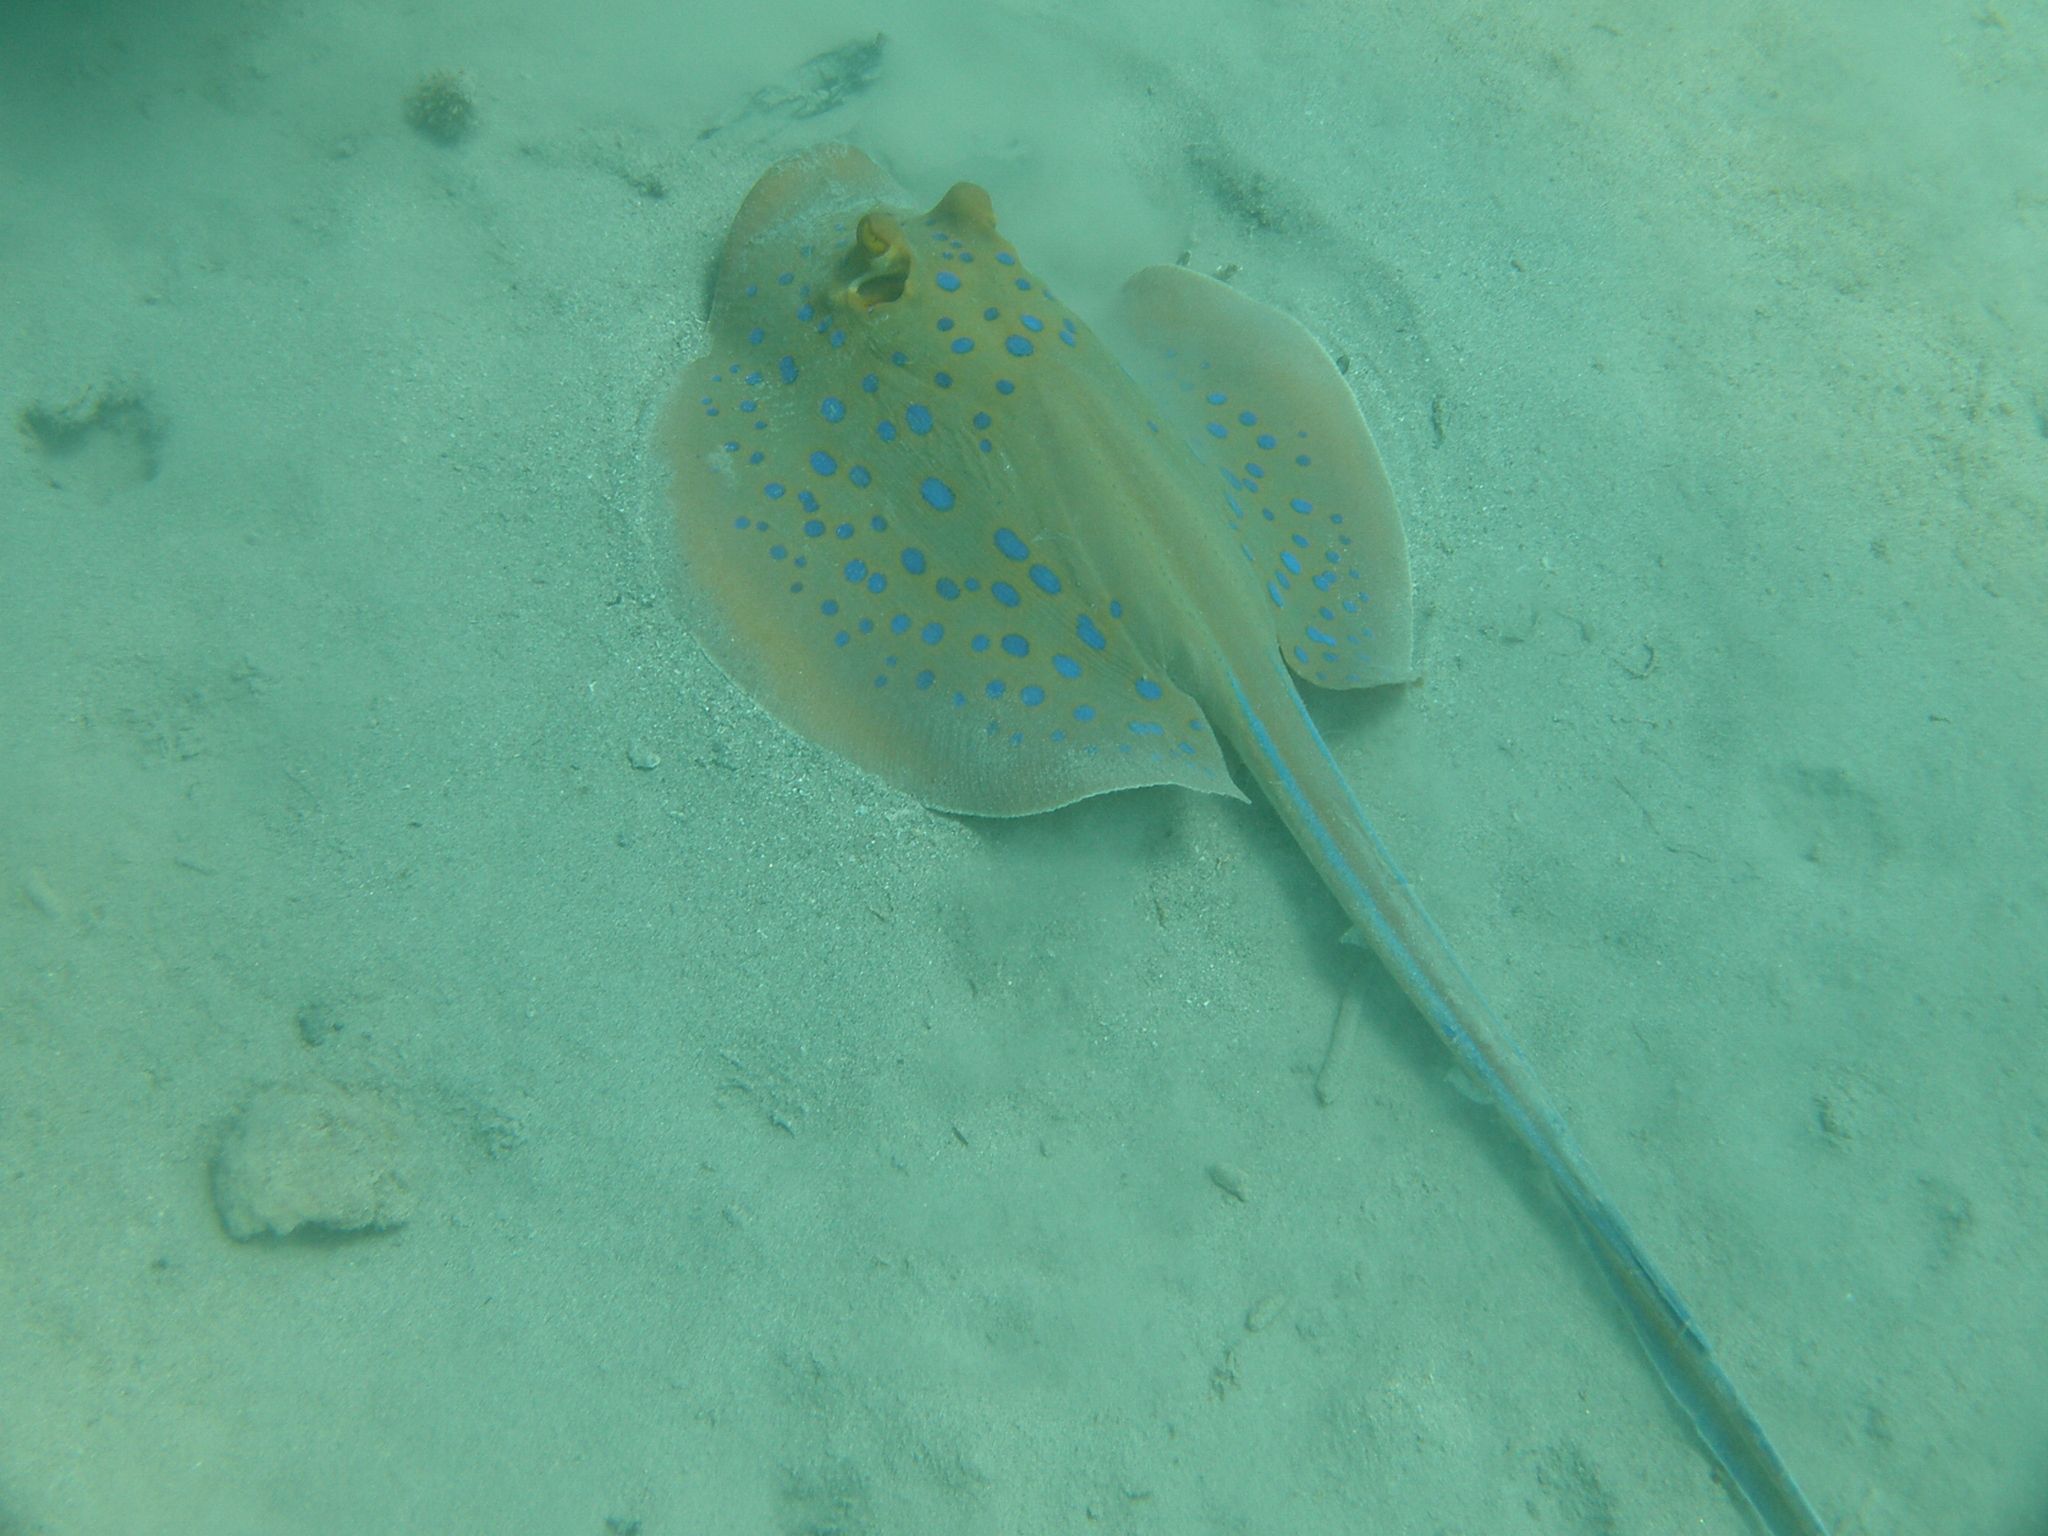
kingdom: Animalia
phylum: Chordata
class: Elasmobranchii
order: Myliobatiformes
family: Dasyatidae
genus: Taeniura
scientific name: Taeniura lymma
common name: Bluespotted ribbontail ray
